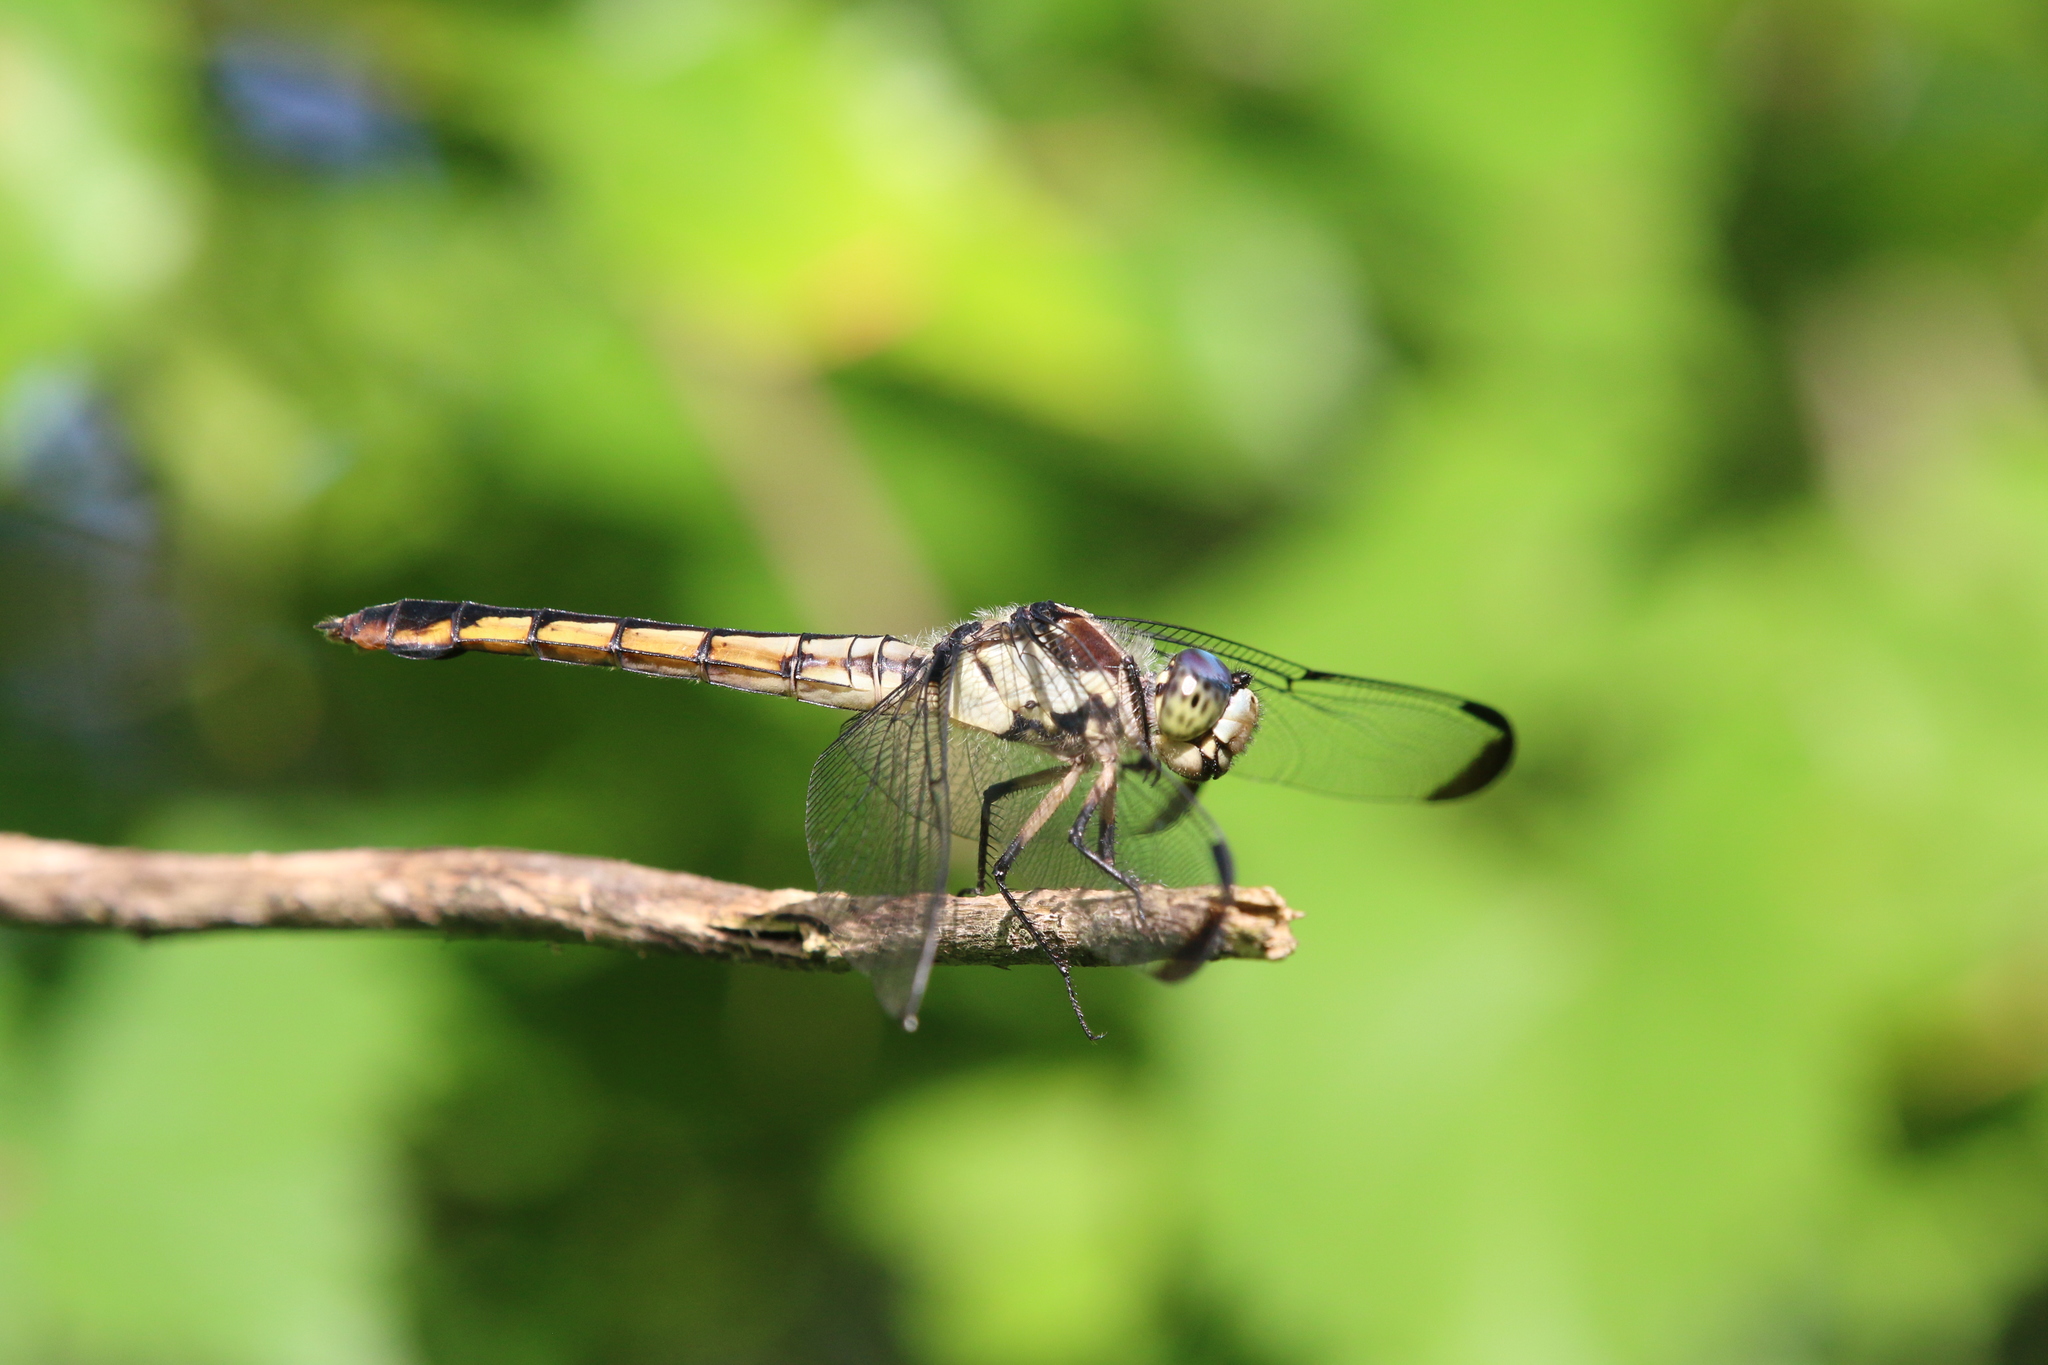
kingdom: Animalia
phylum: Arthropoda
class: Insecta
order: Odonata
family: Libellulidae
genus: Libellula
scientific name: Libellula vibrans
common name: Great blue skimmer
